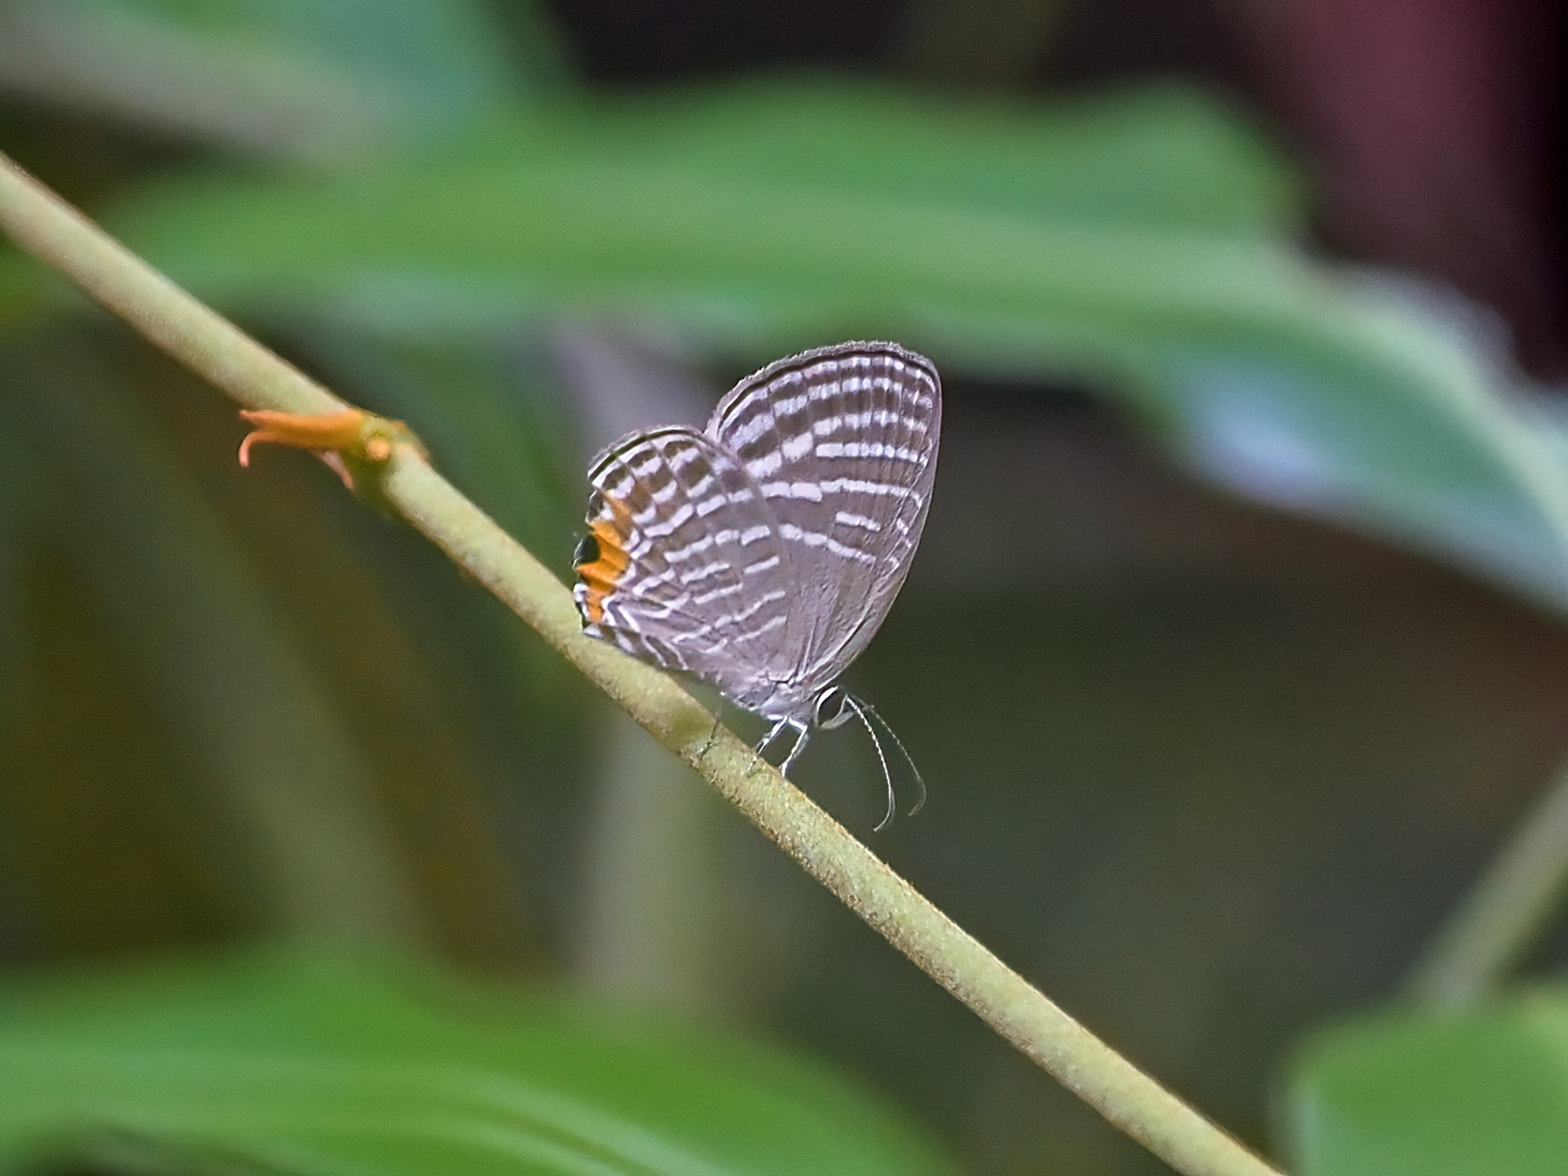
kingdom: Animalia
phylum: Arthropoda
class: Insecta
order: Lepidoptera
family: Lycaenidae
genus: Jamides
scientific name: Jamides celeno
